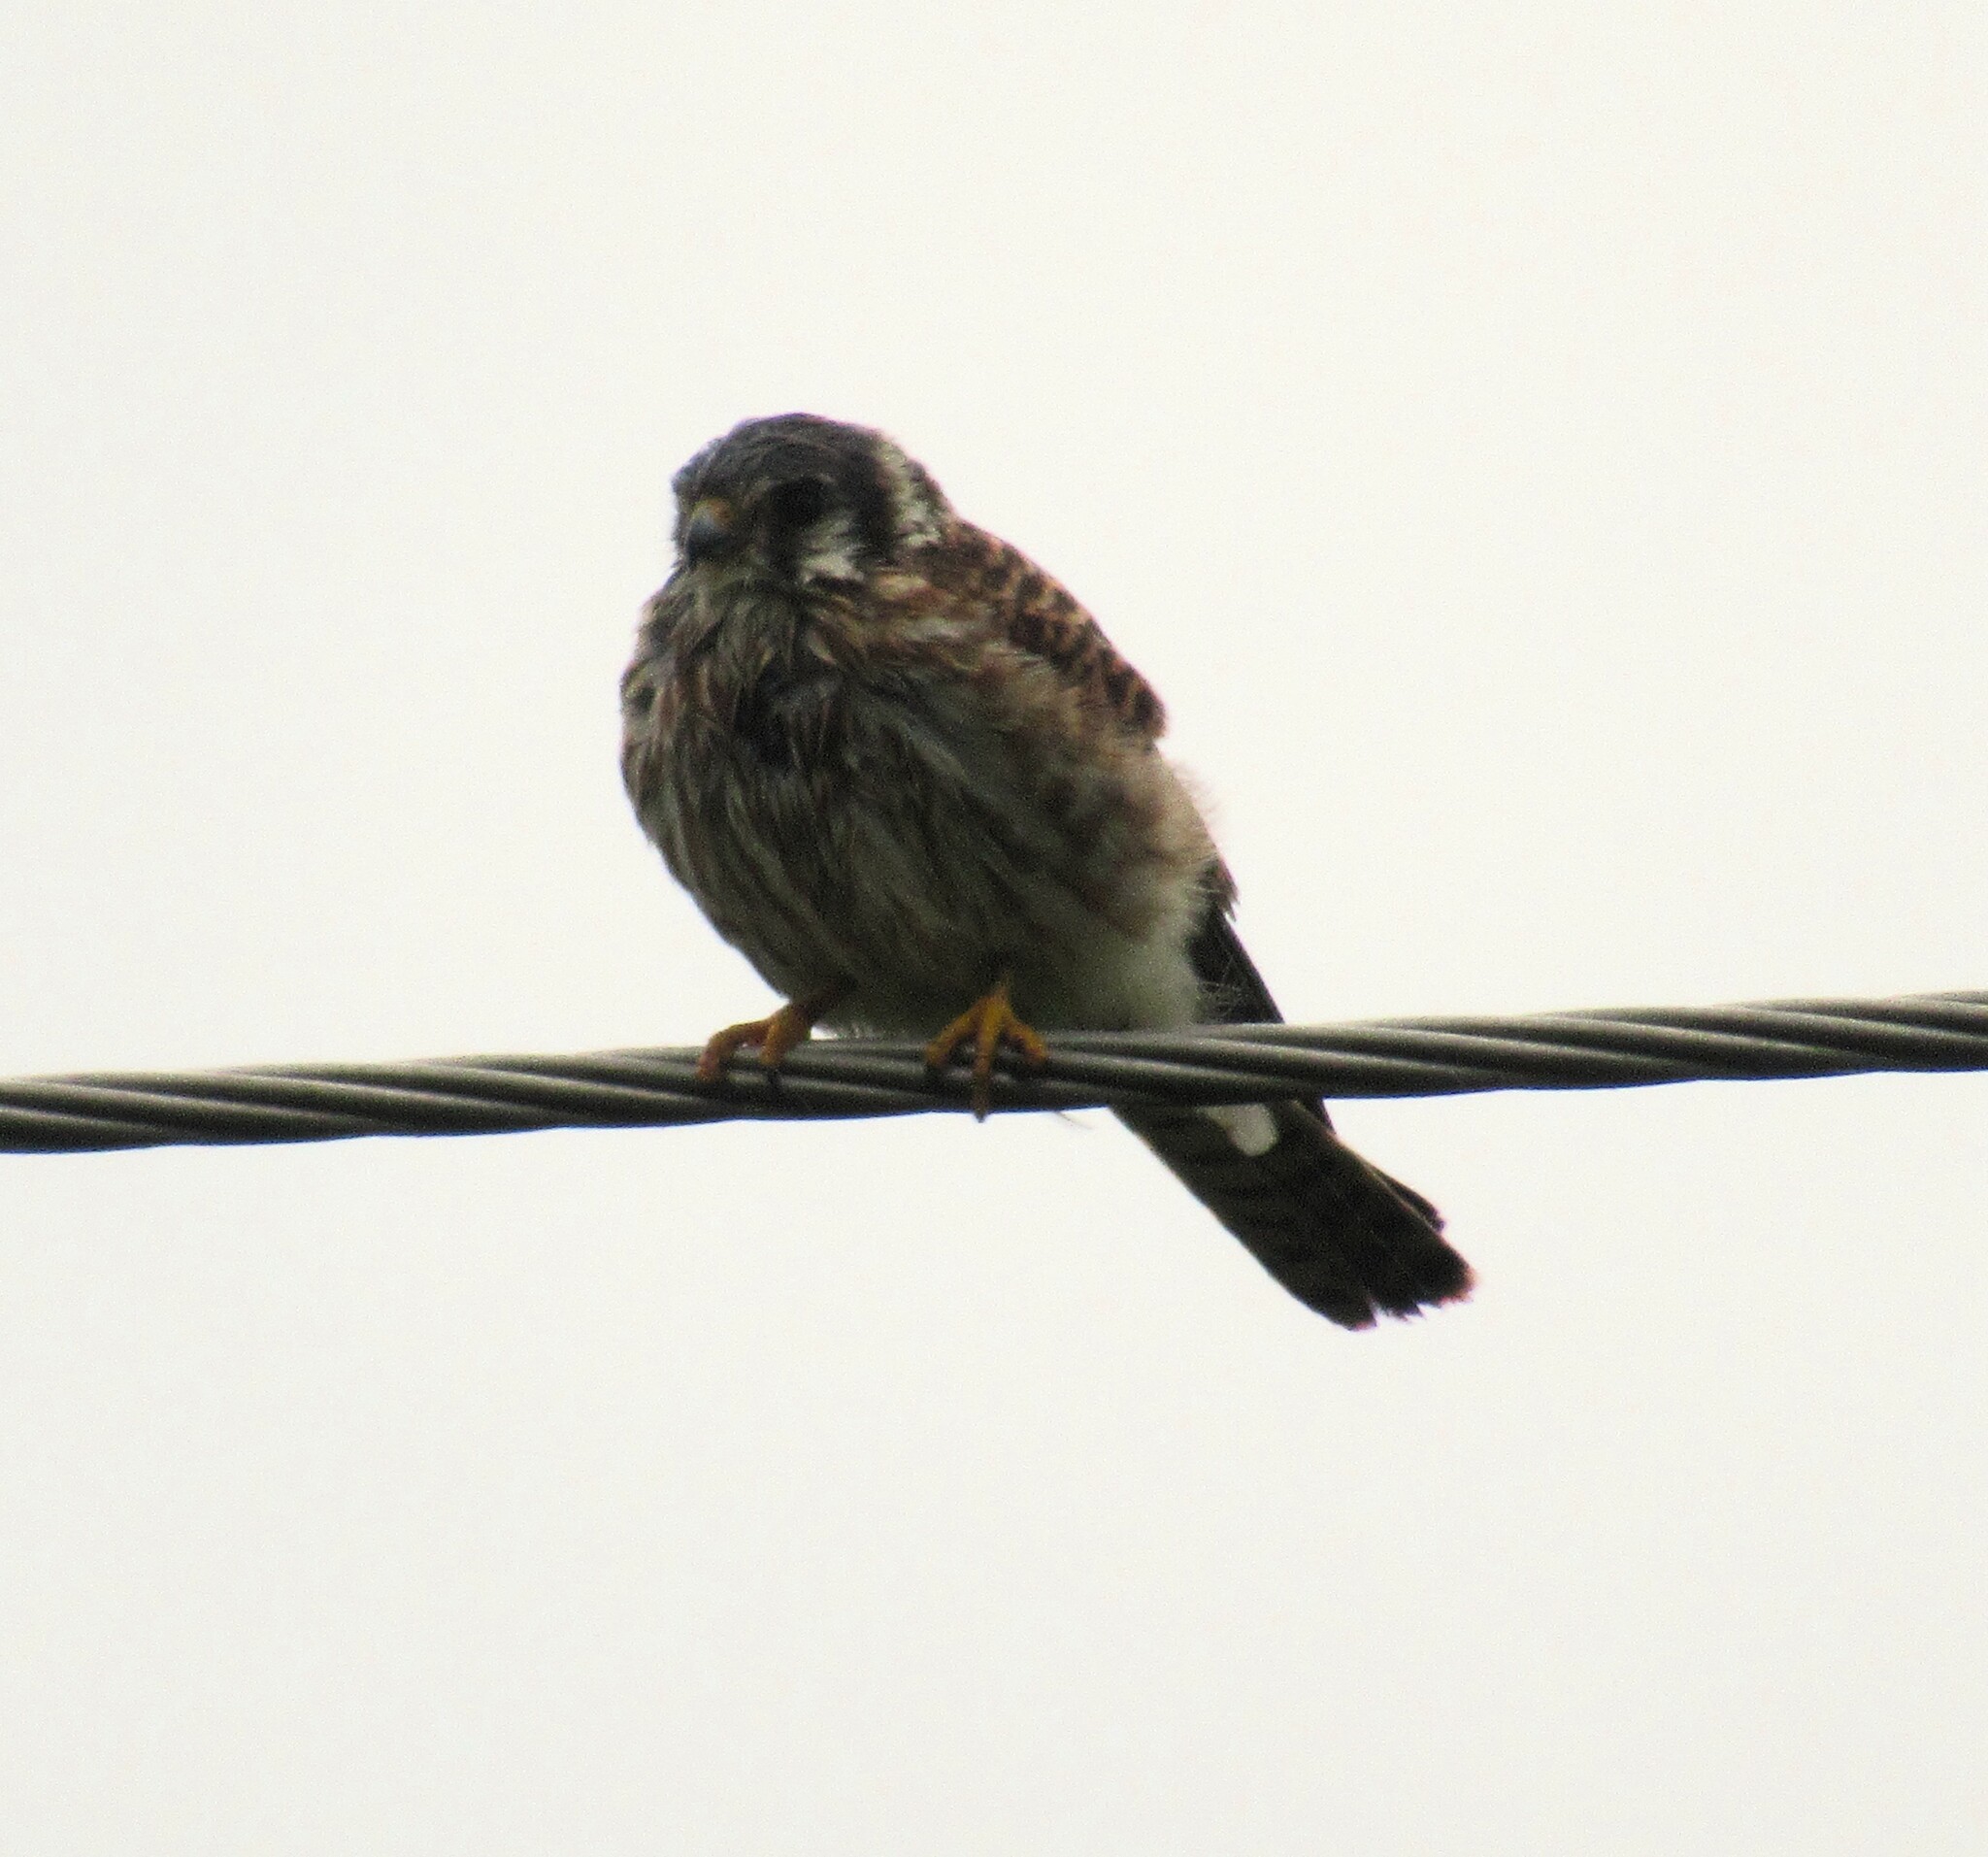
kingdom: Animalia
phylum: Chordata
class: Aves
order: Falconiformes
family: Falconidae
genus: Falco
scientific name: Falco sparverius
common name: American kestrel
